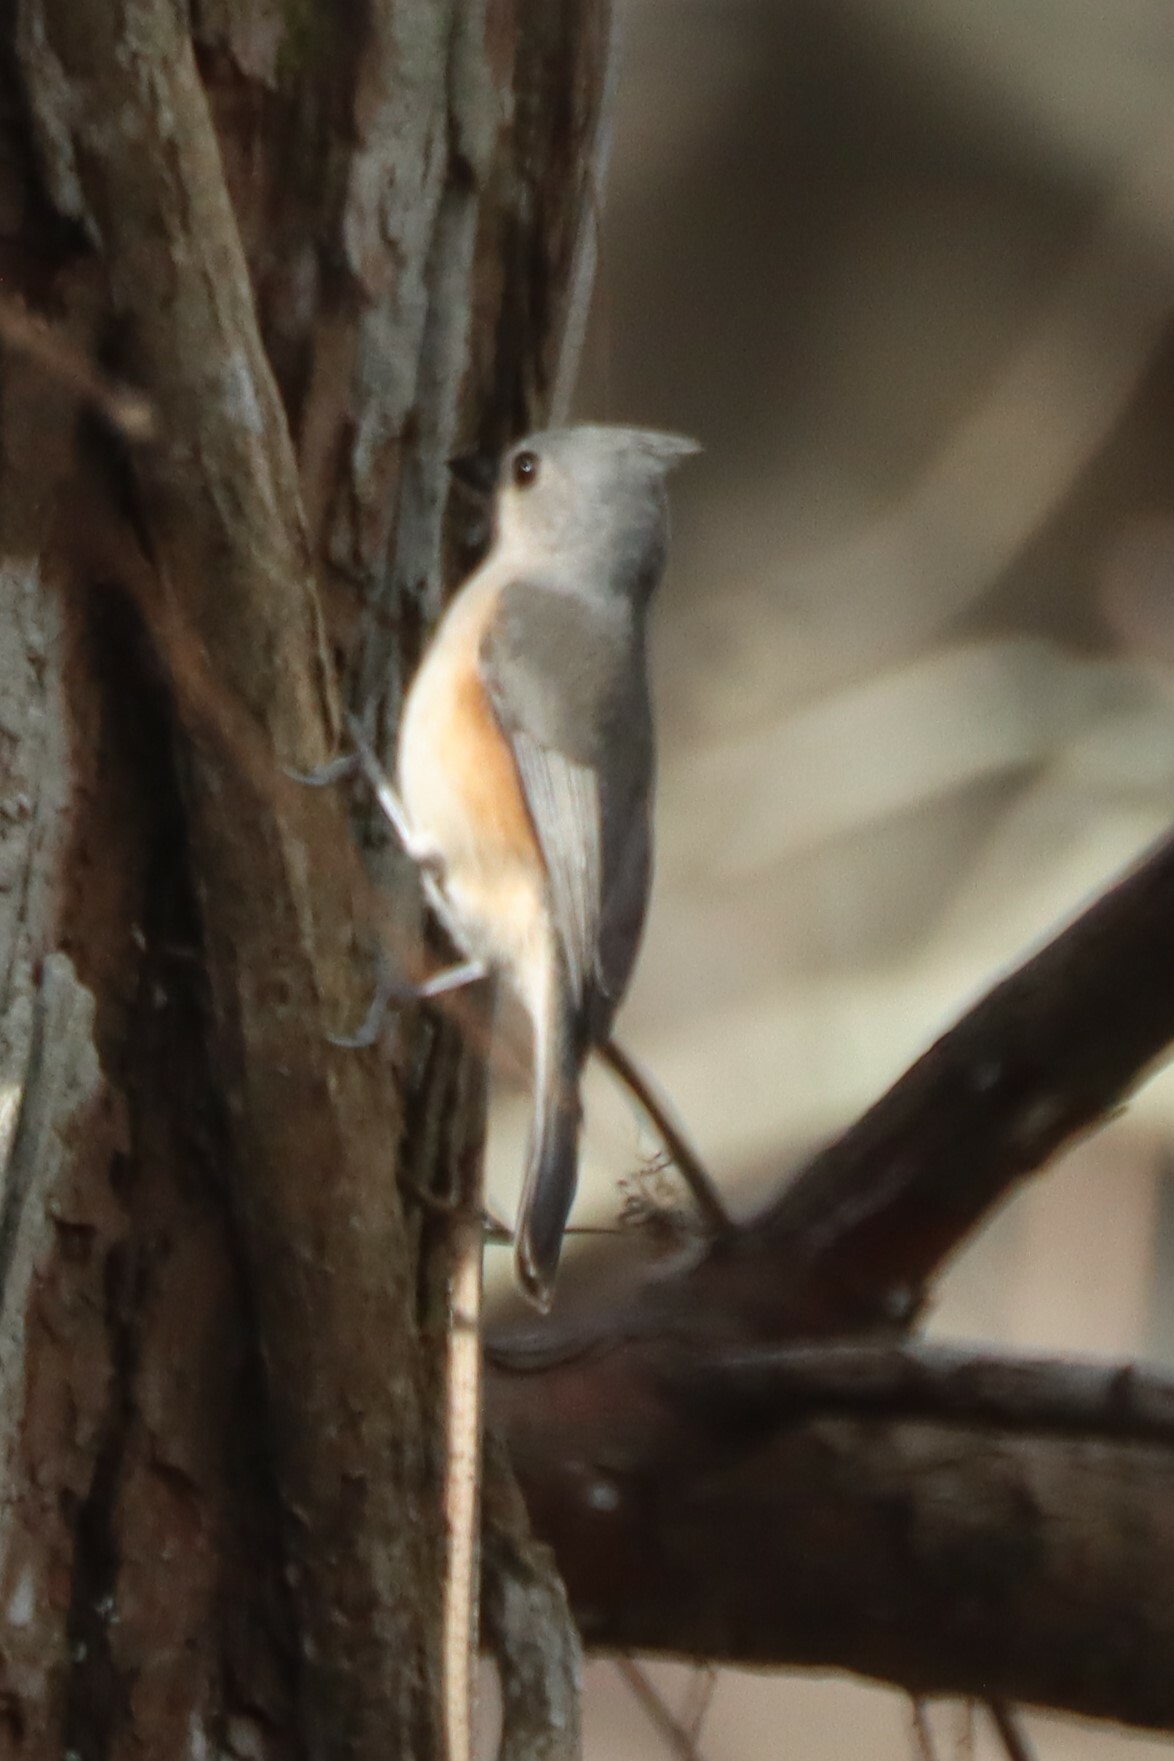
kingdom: Animalia
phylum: Chordata
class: Aves
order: Passeriformes
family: Paridae
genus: Baeolophus
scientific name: Baeolophus bicolor
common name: Tufted titmouse
